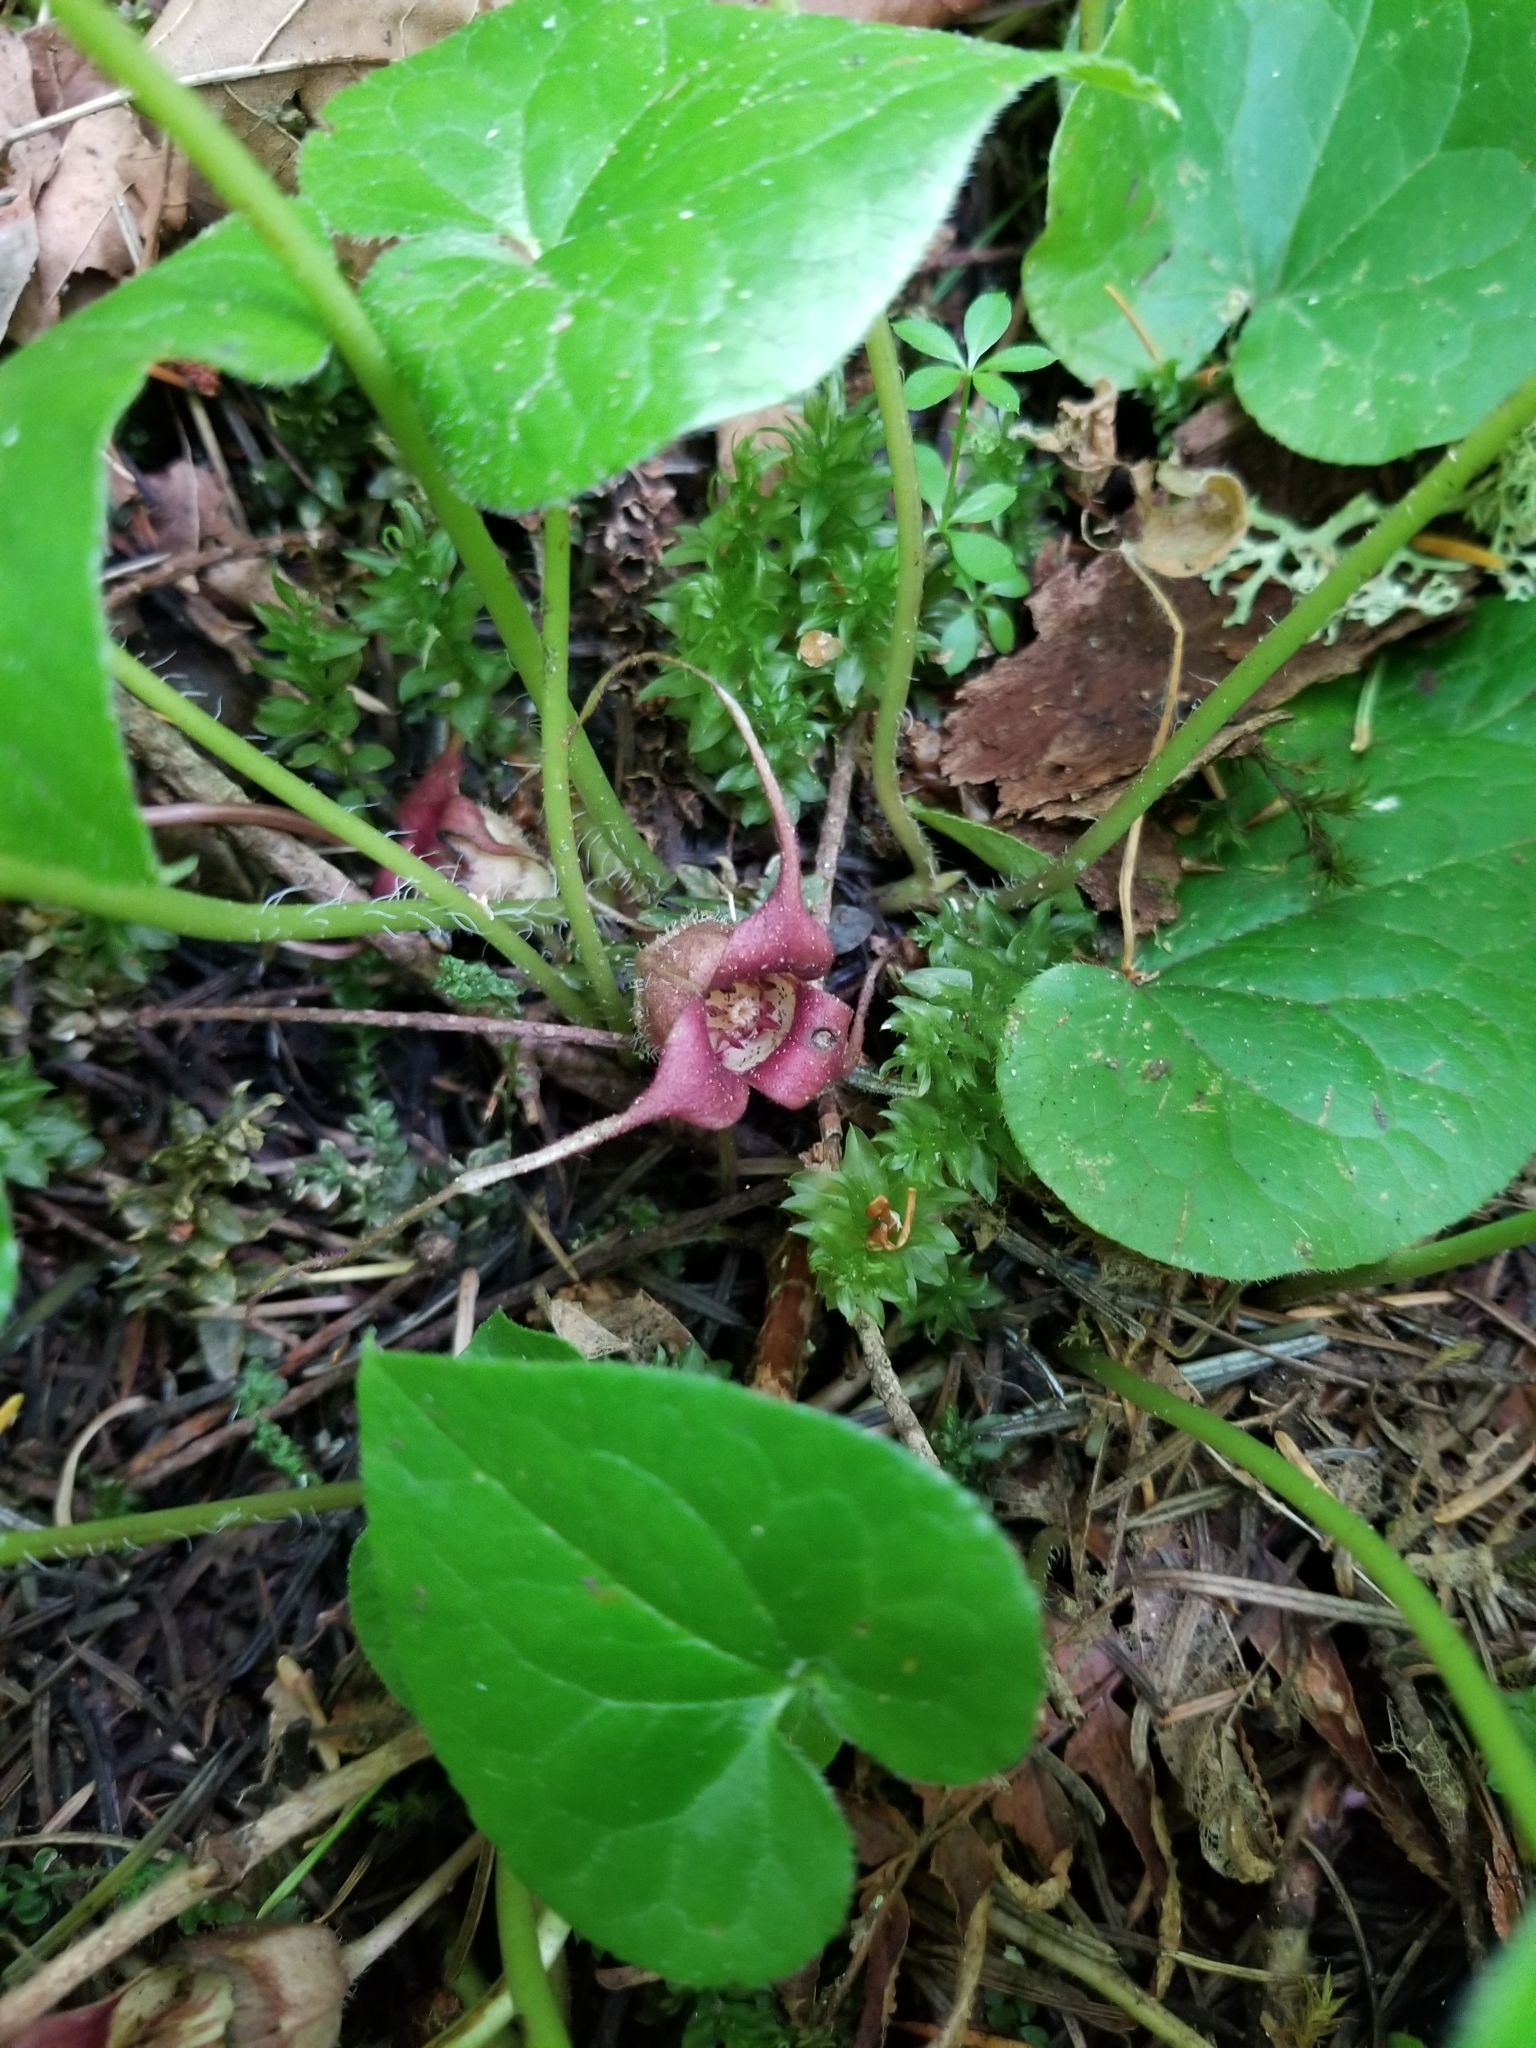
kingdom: Plantae
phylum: Tracheophyta
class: Magnoliopsida
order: Piperales
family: Aristolochiaceae
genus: Asarum
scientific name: Asarum caudatum
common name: Wild ginger
